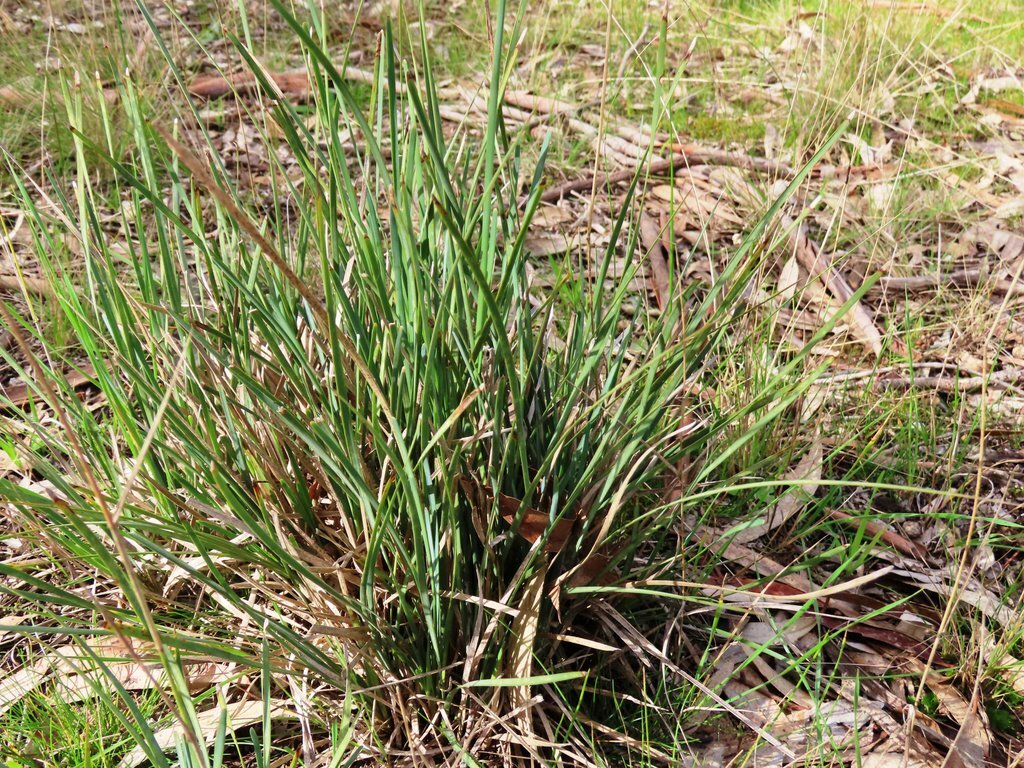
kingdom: Plantae
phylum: Tracheophyta
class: Liliopsida
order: Asparagales
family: Asparagaceae
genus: Lomandra
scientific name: Lomandra filiformis
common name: Wattle mat-rush
